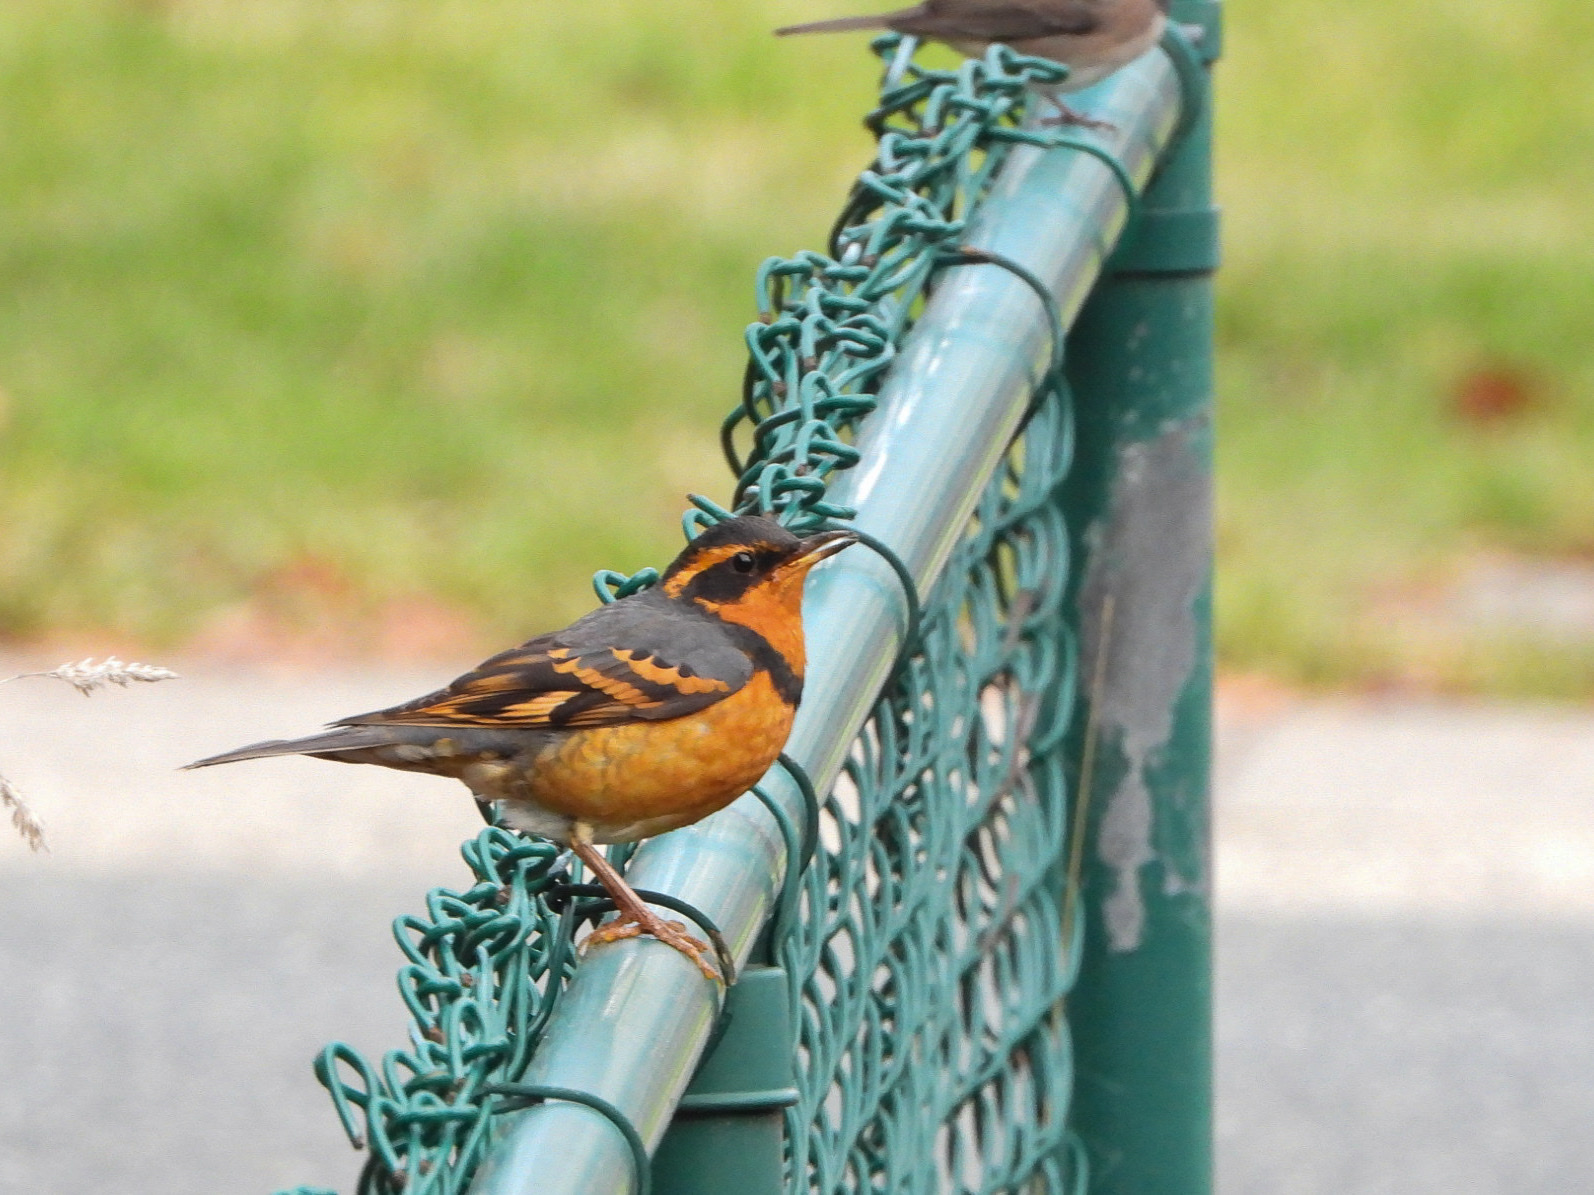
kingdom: Animalia
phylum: Chordata
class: Aves
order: Passeriformes
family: Turdidae
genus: Ixoreus
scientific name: Ixoreus naevius
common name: Varied thrush
